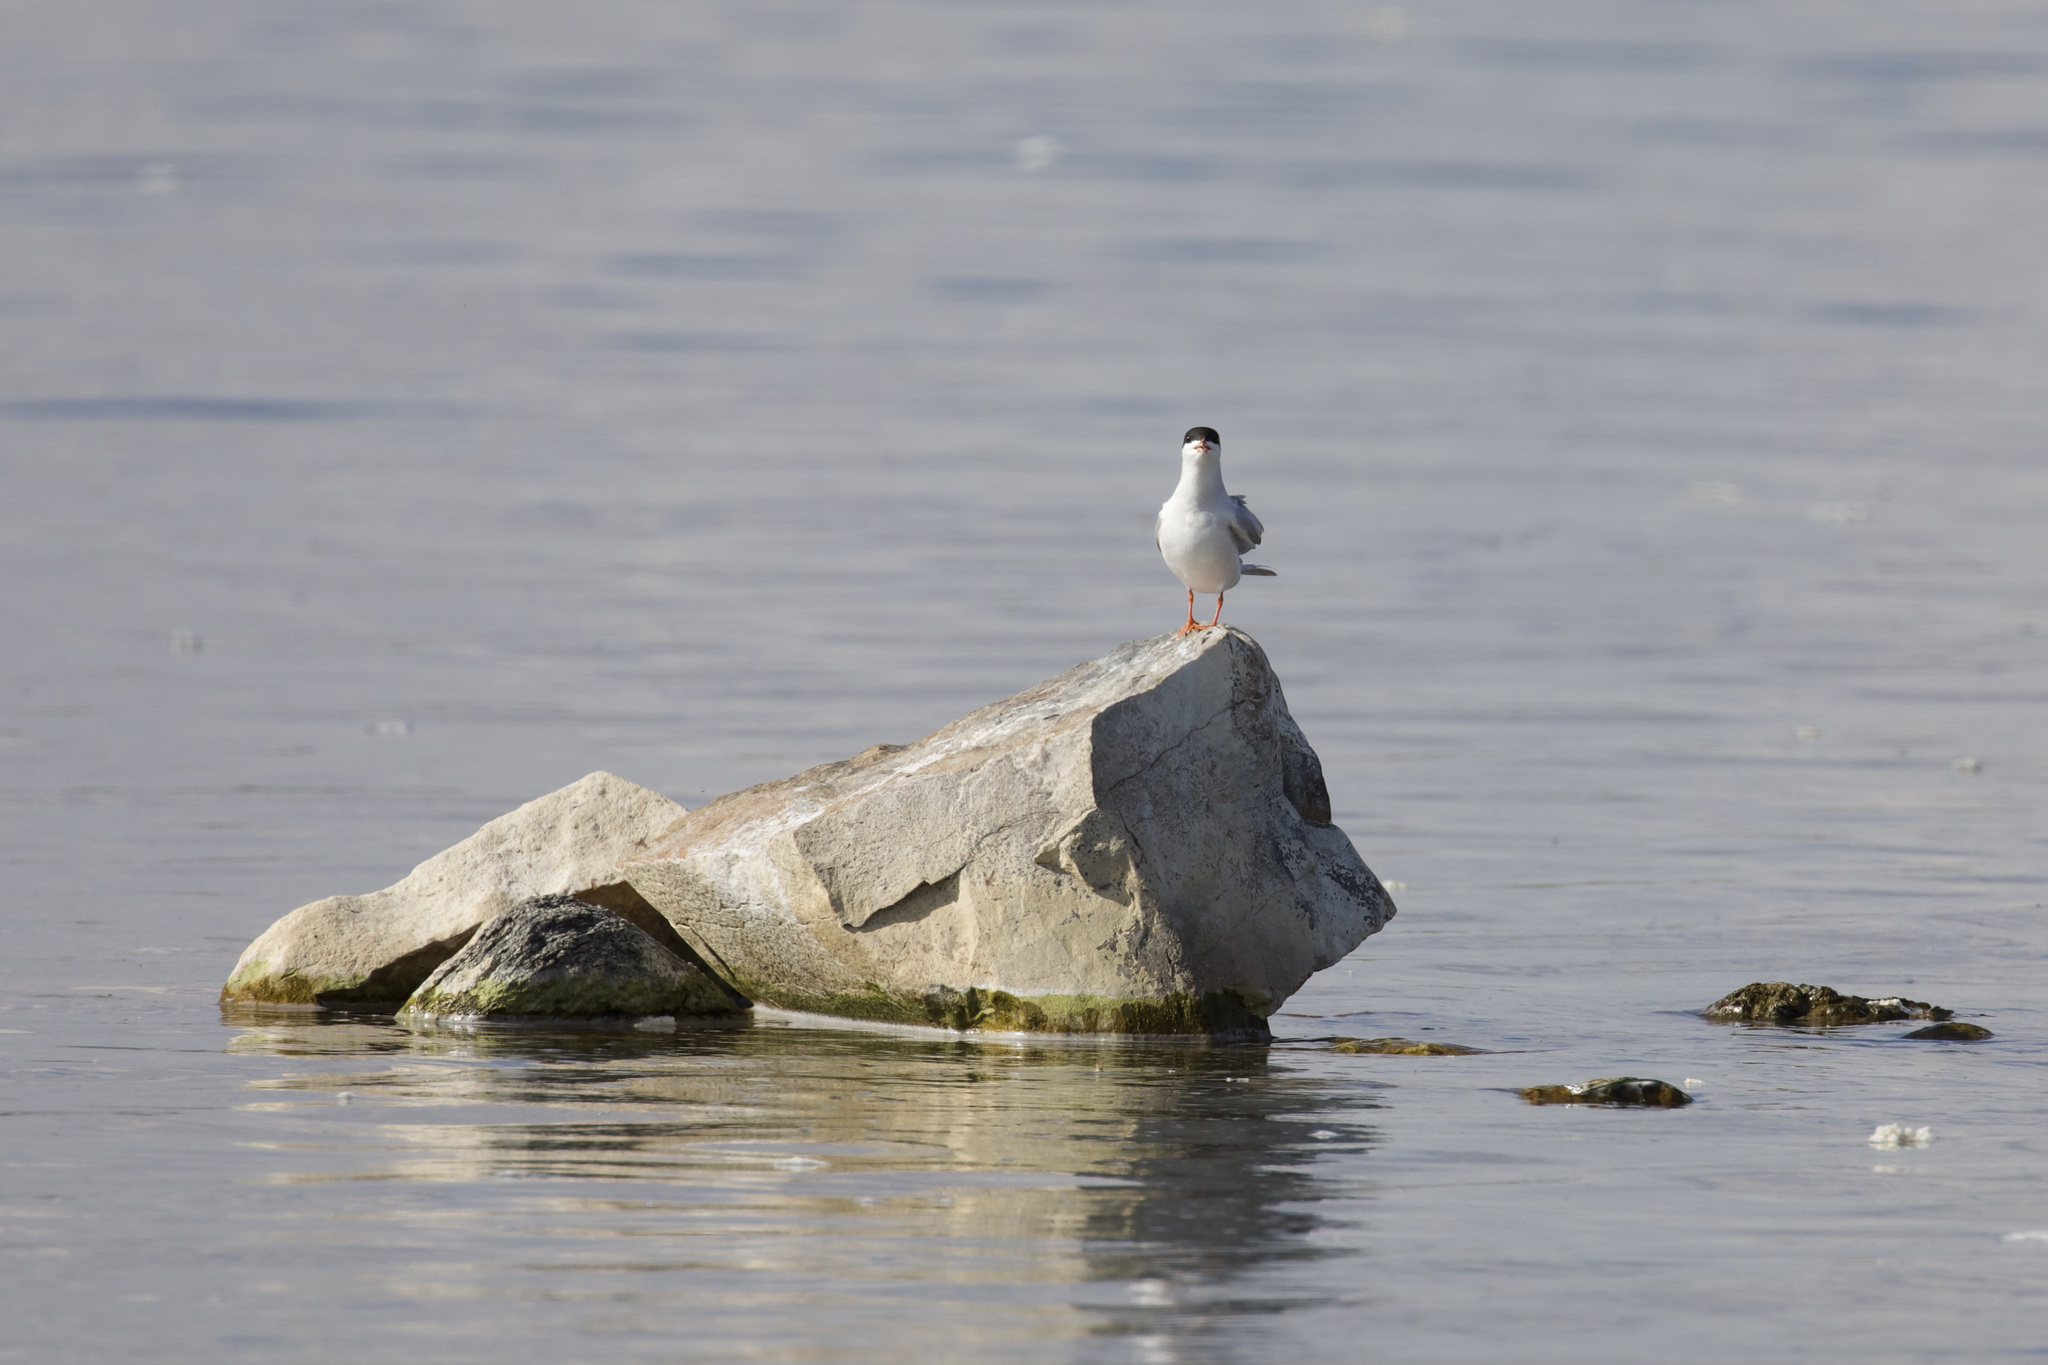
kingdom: Animalia
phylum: Chordata
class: Aves
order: Charadriiformes
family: Laridae
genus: Sterna
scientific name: Sterna forsteri
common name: Forster's tern
